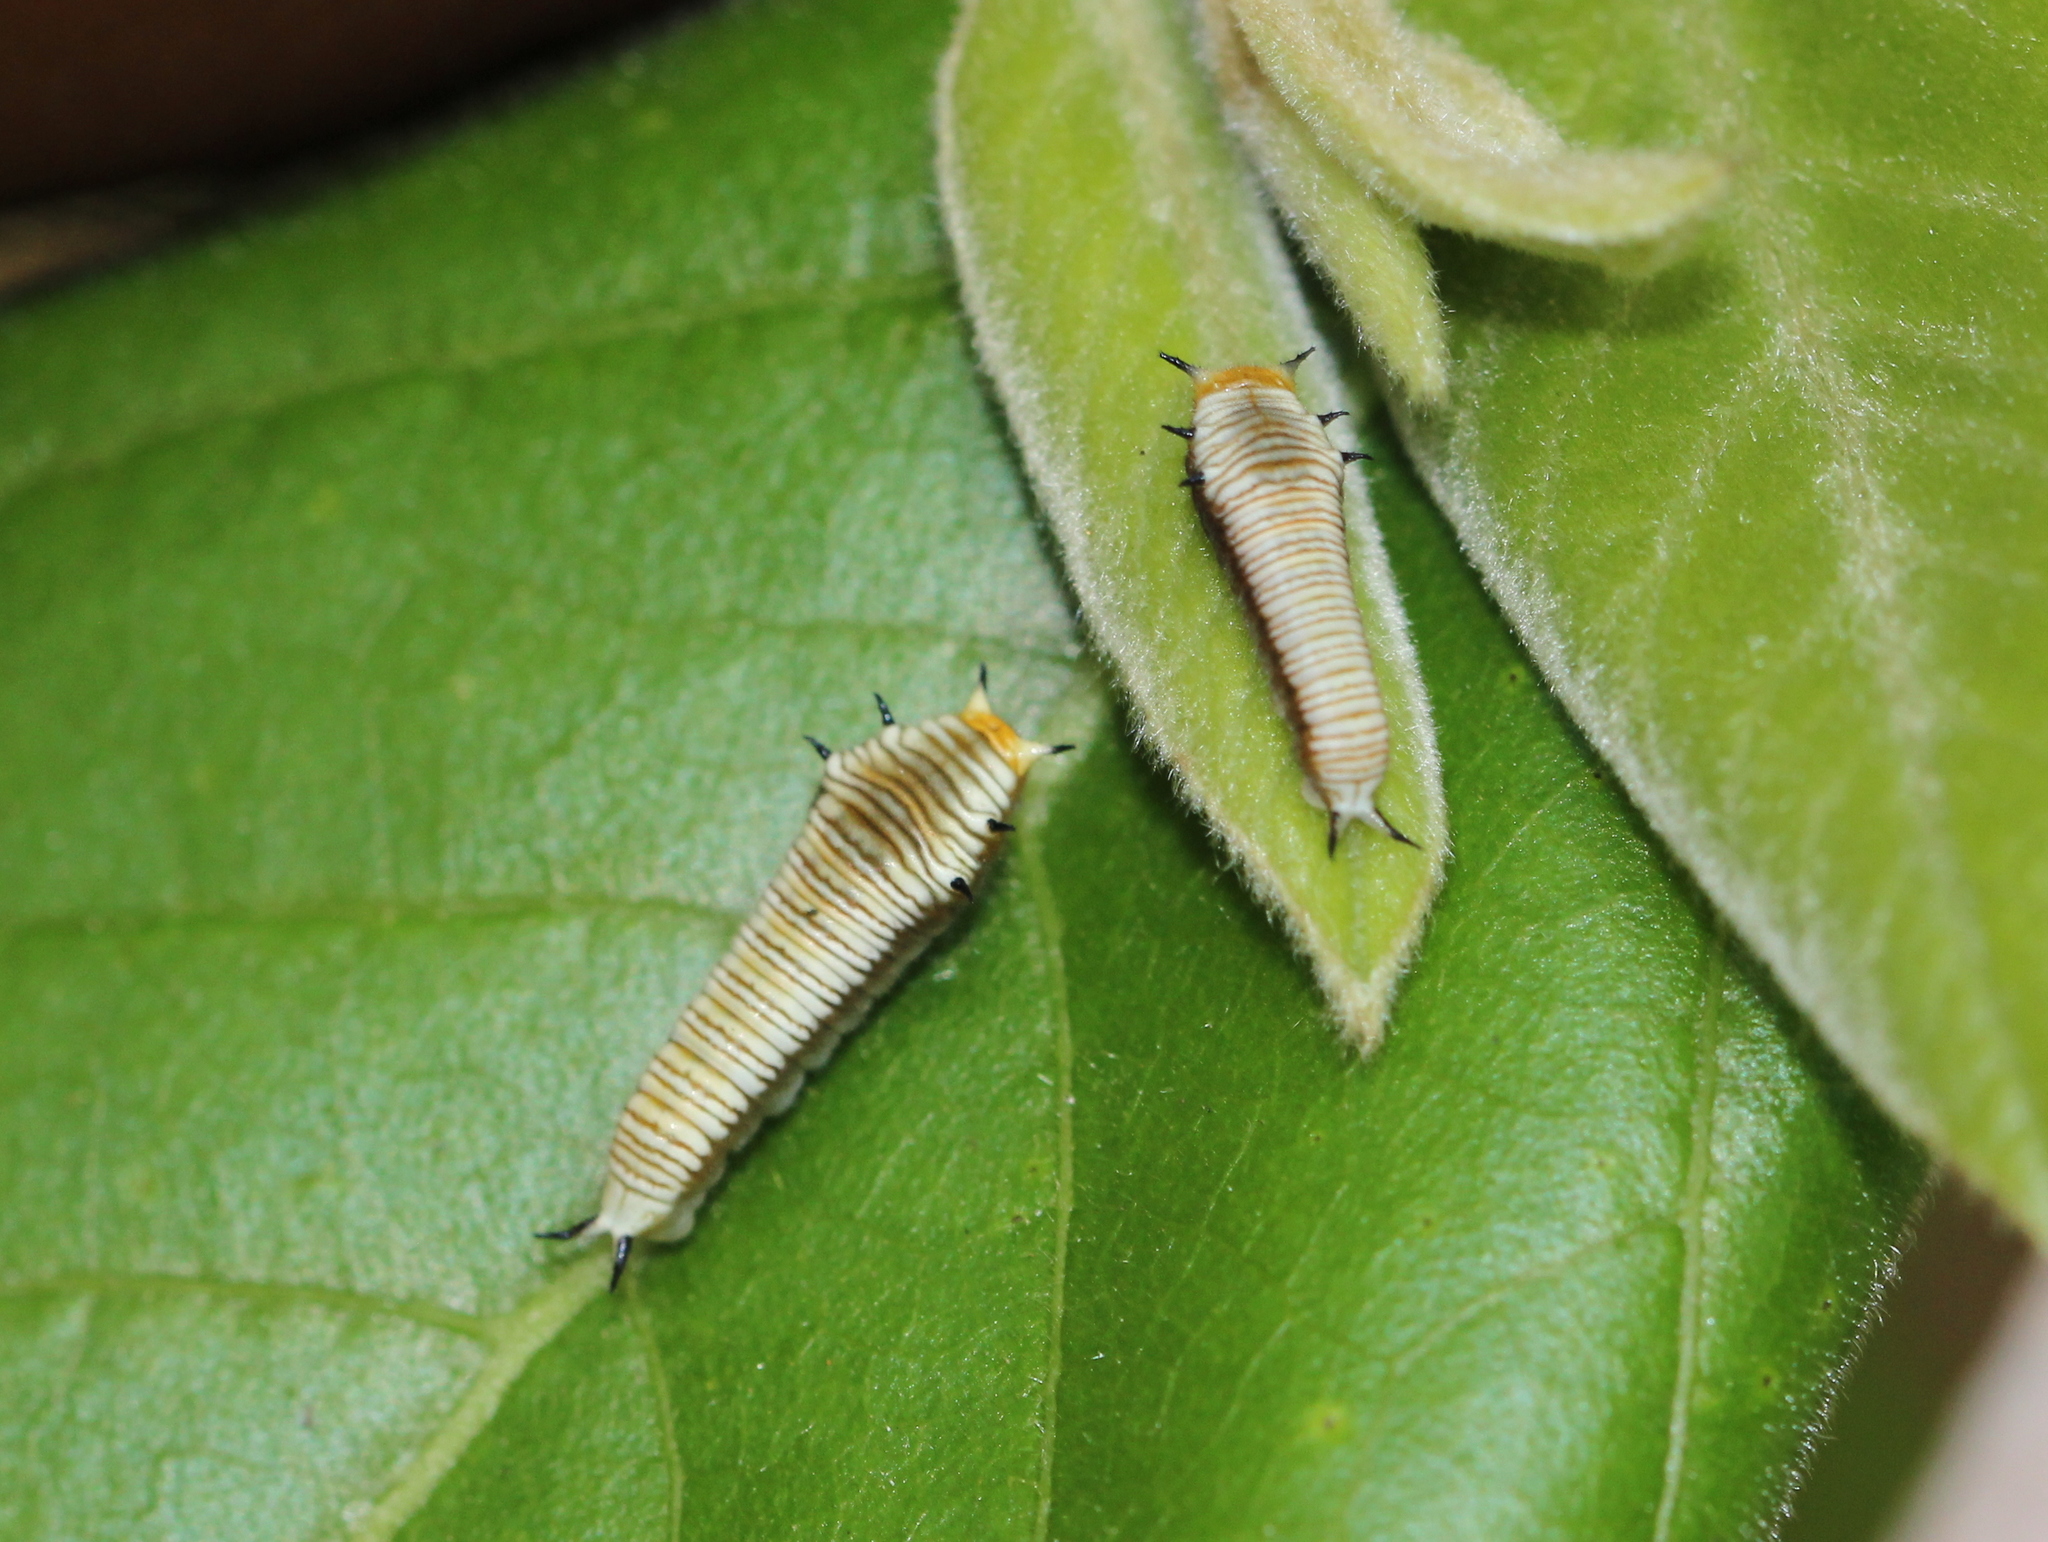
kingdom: Animalia
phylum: Arthropoda
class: Insecta
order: Lepidoptera
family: Papilionidae
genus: Graphium
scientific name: Graphium nomius
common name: Spot swordtail
